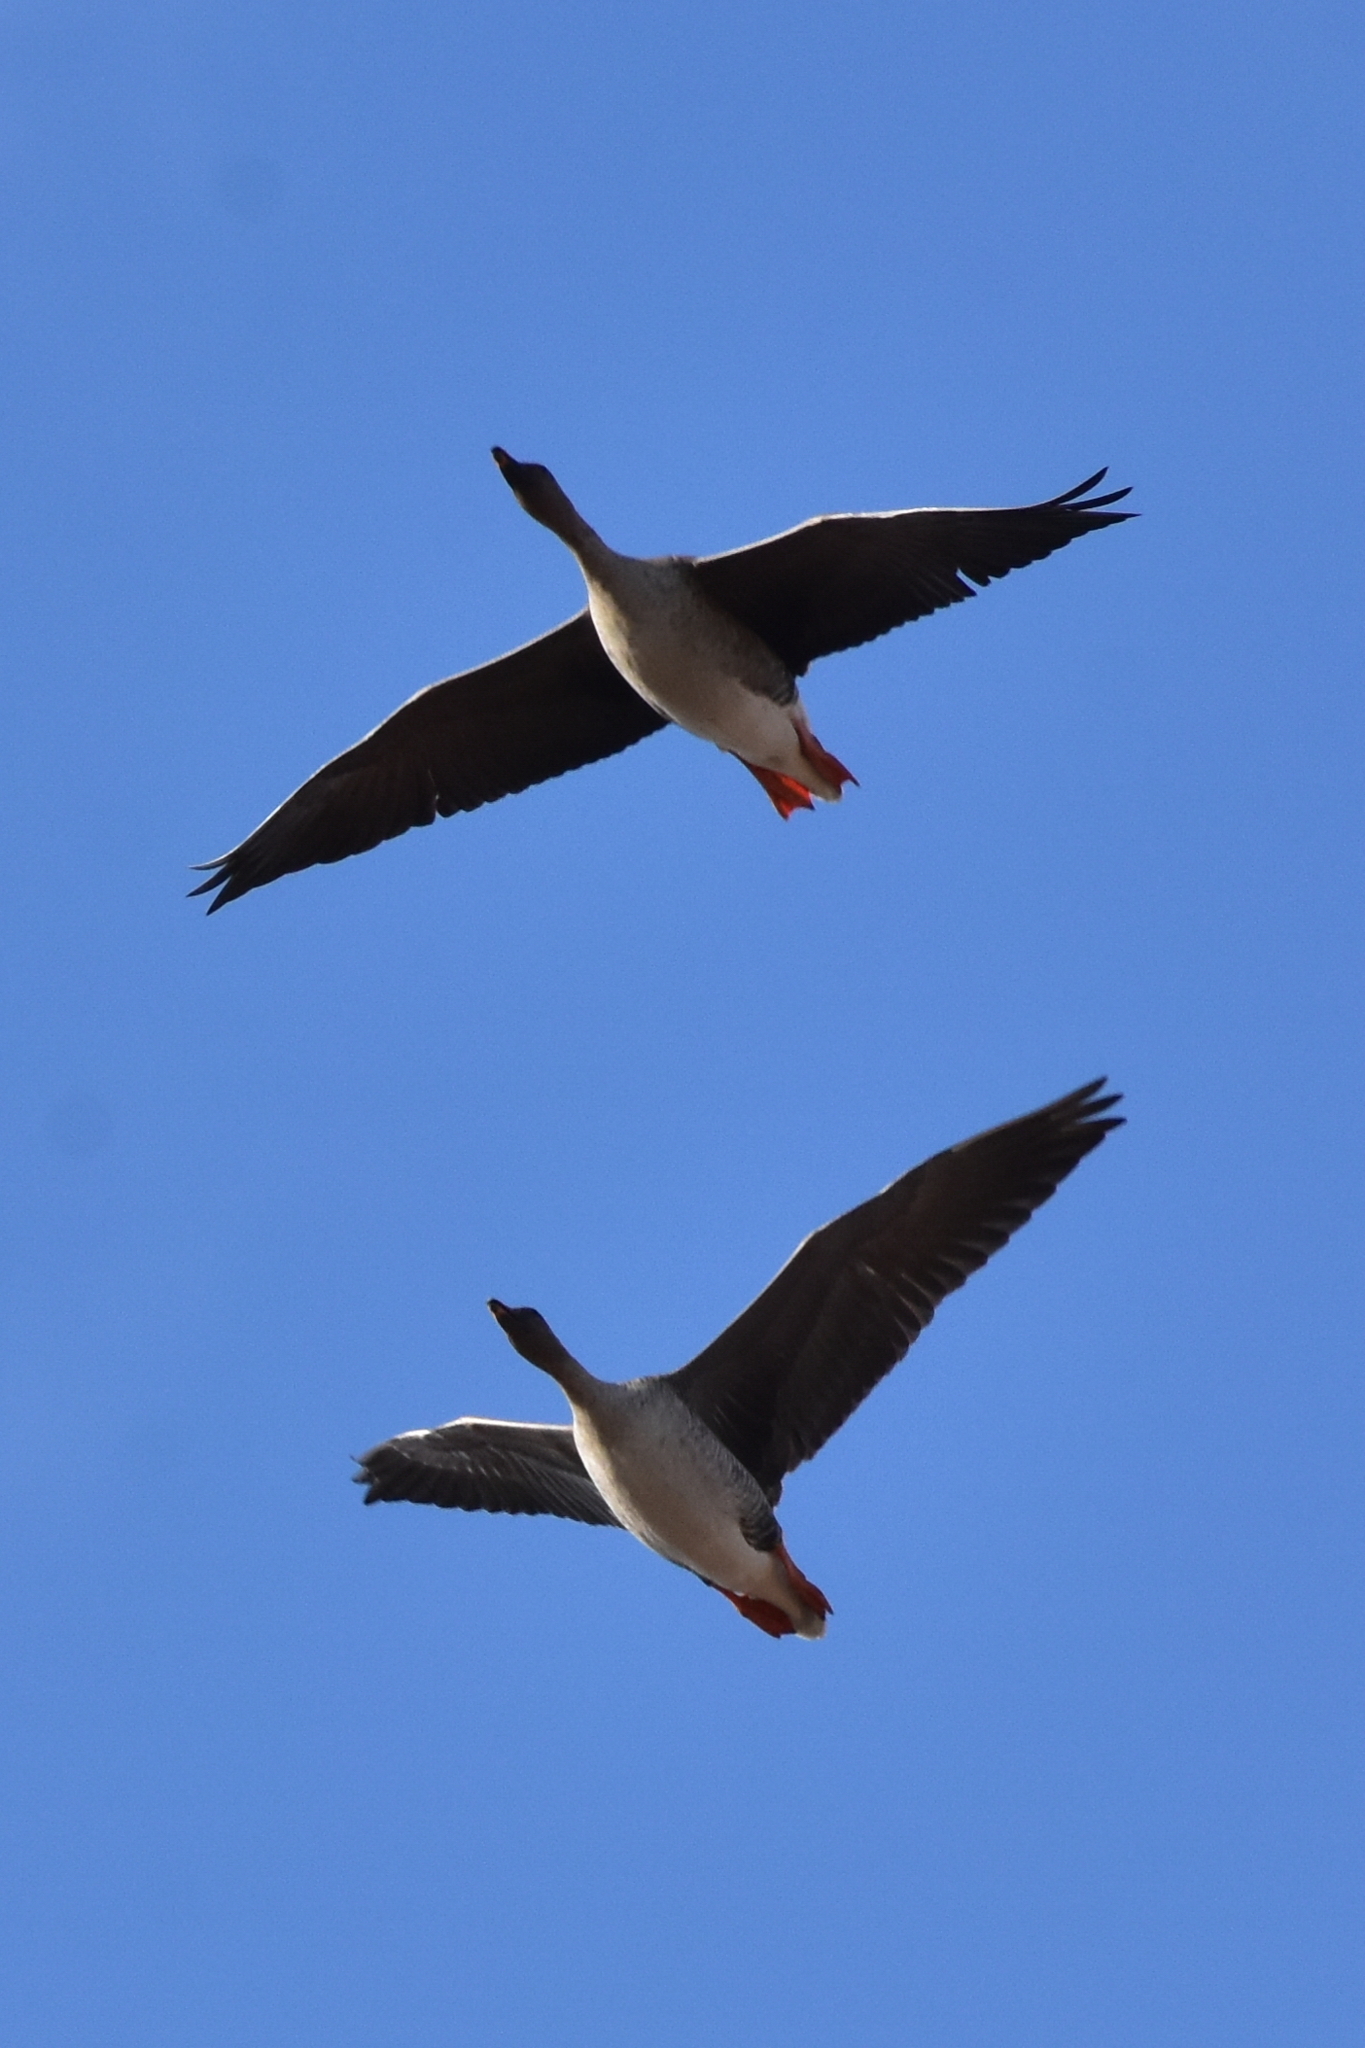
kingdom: Animalia
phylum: Chordata
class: Aves
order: Anseriformes
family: Anatidae
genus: Anser
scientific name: Anser fabalis
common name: Bean goose
